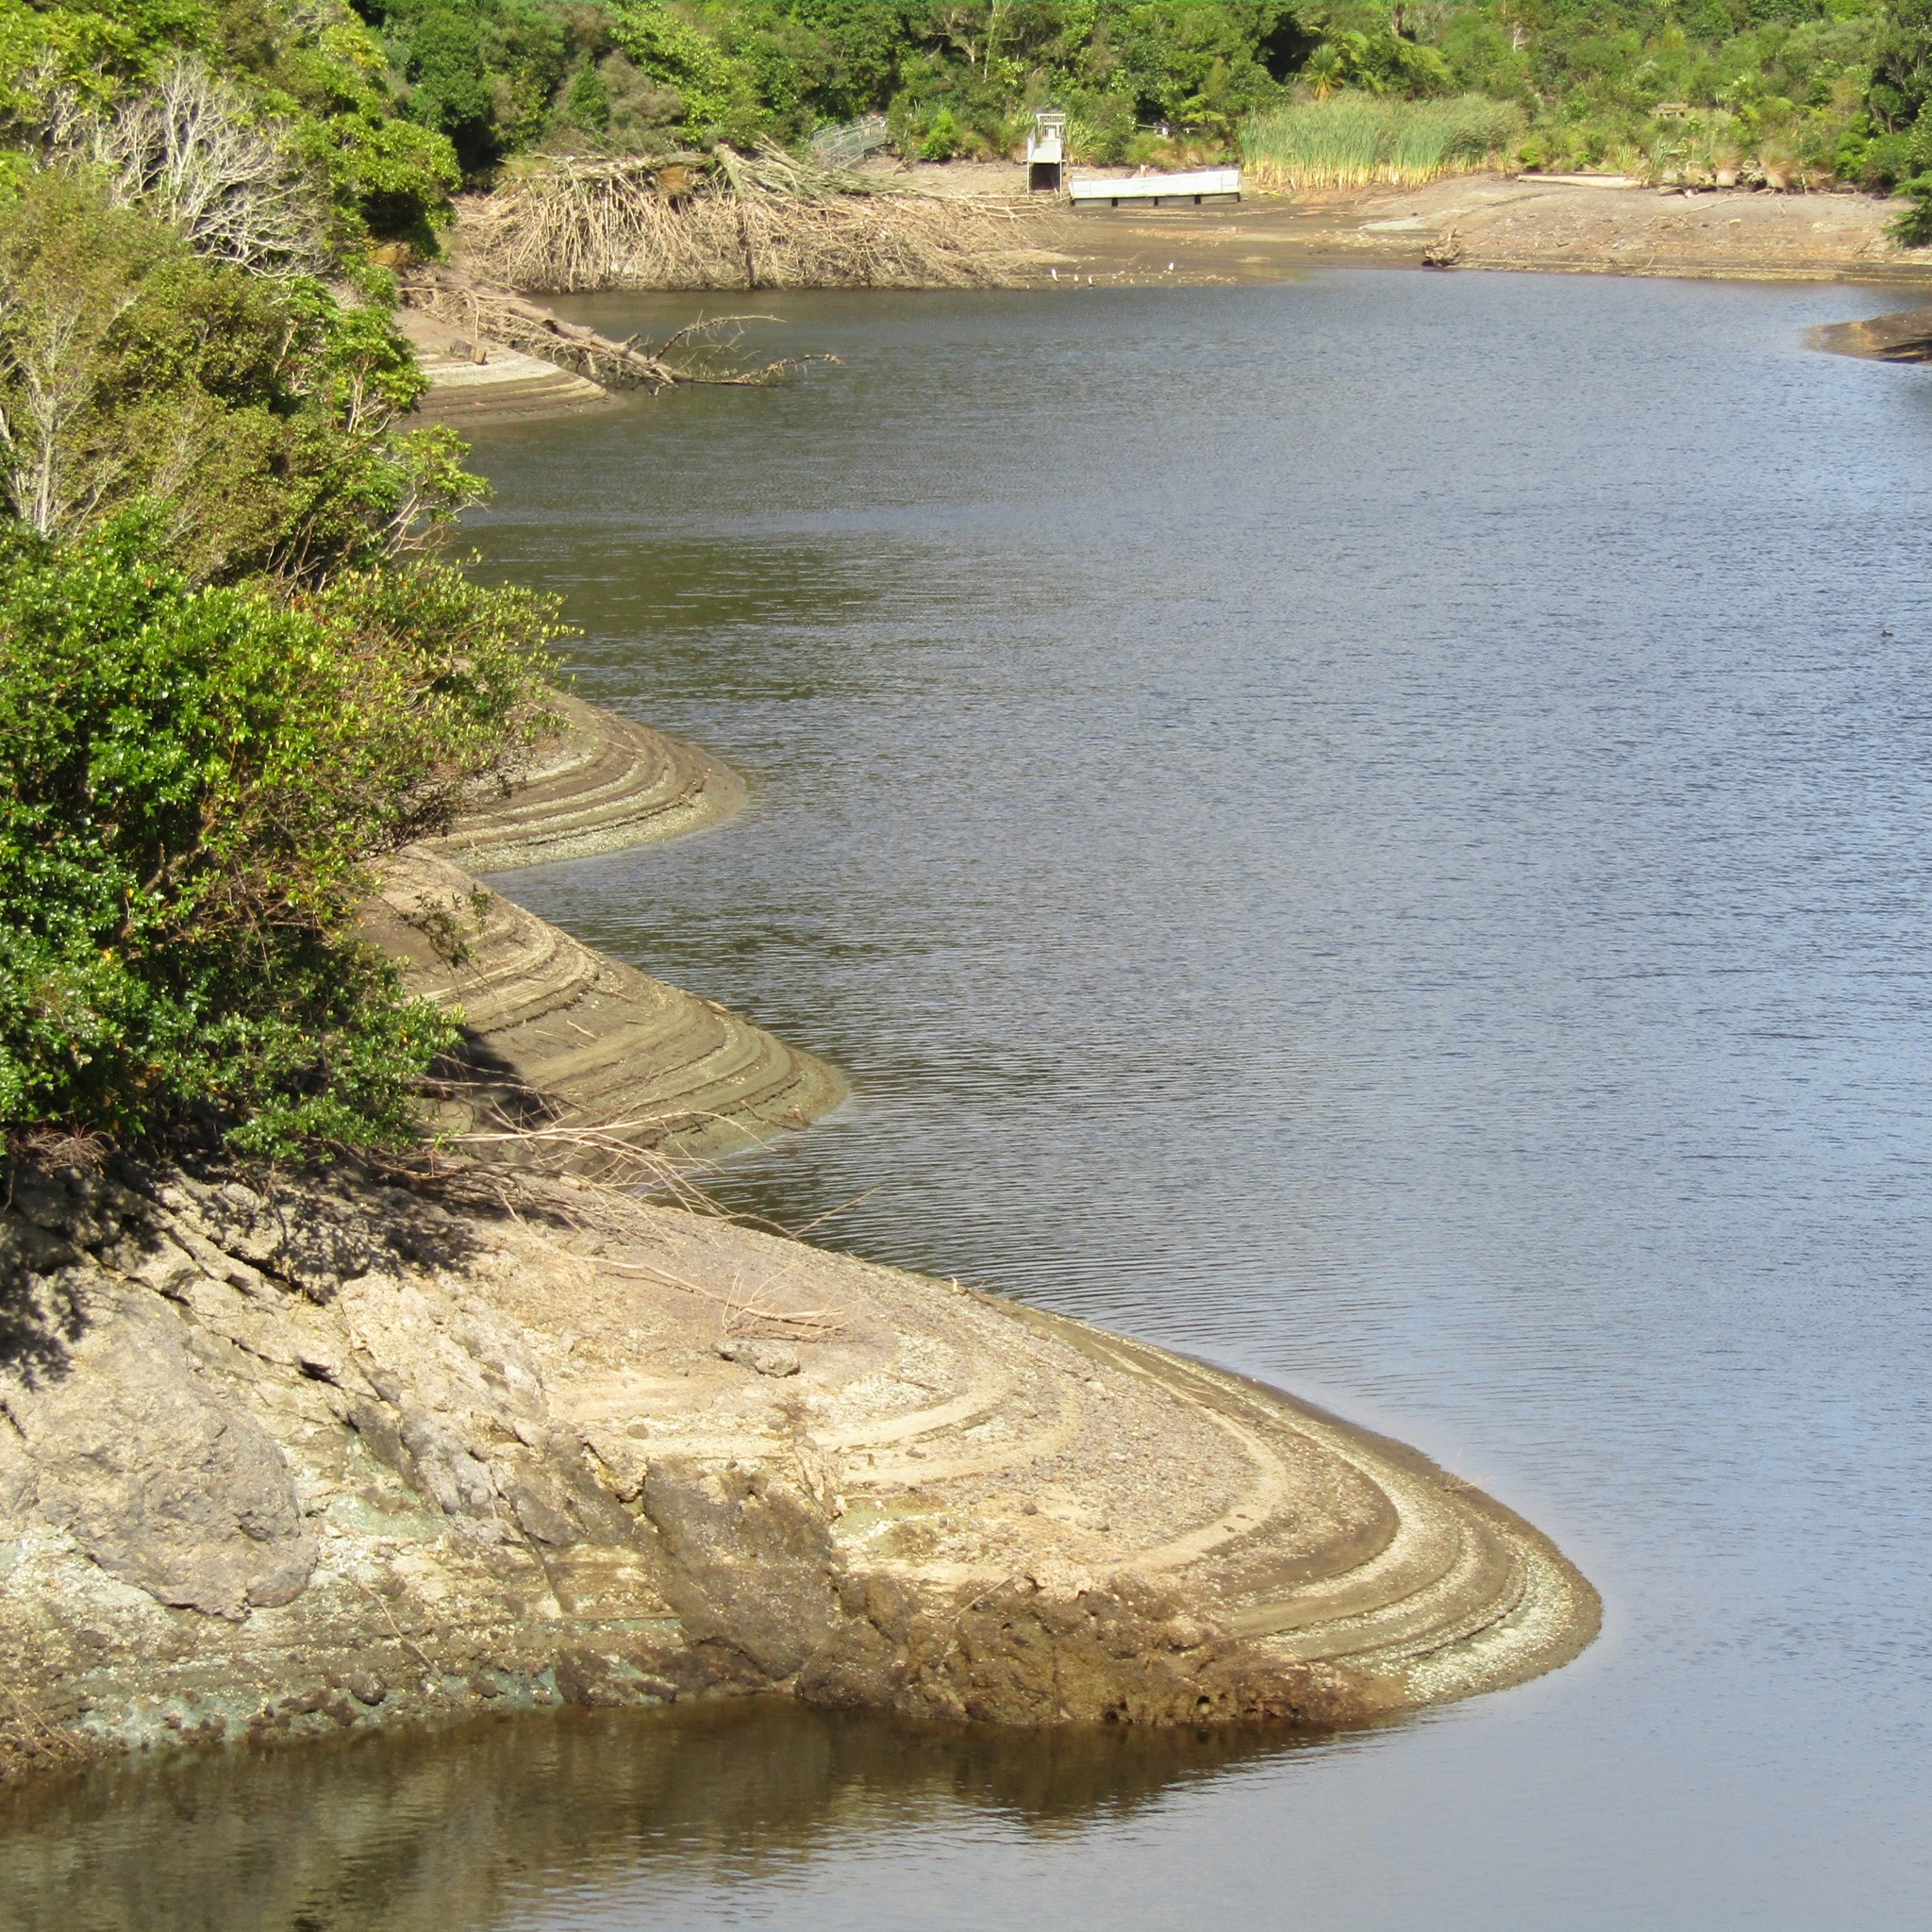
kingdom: Animalia
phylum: Chordata
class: Aves
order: Suliformes
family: Phalacrocoracidae
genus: Phalacrocorax
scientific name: Phalacrocorax varius
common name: Pied cormorant
